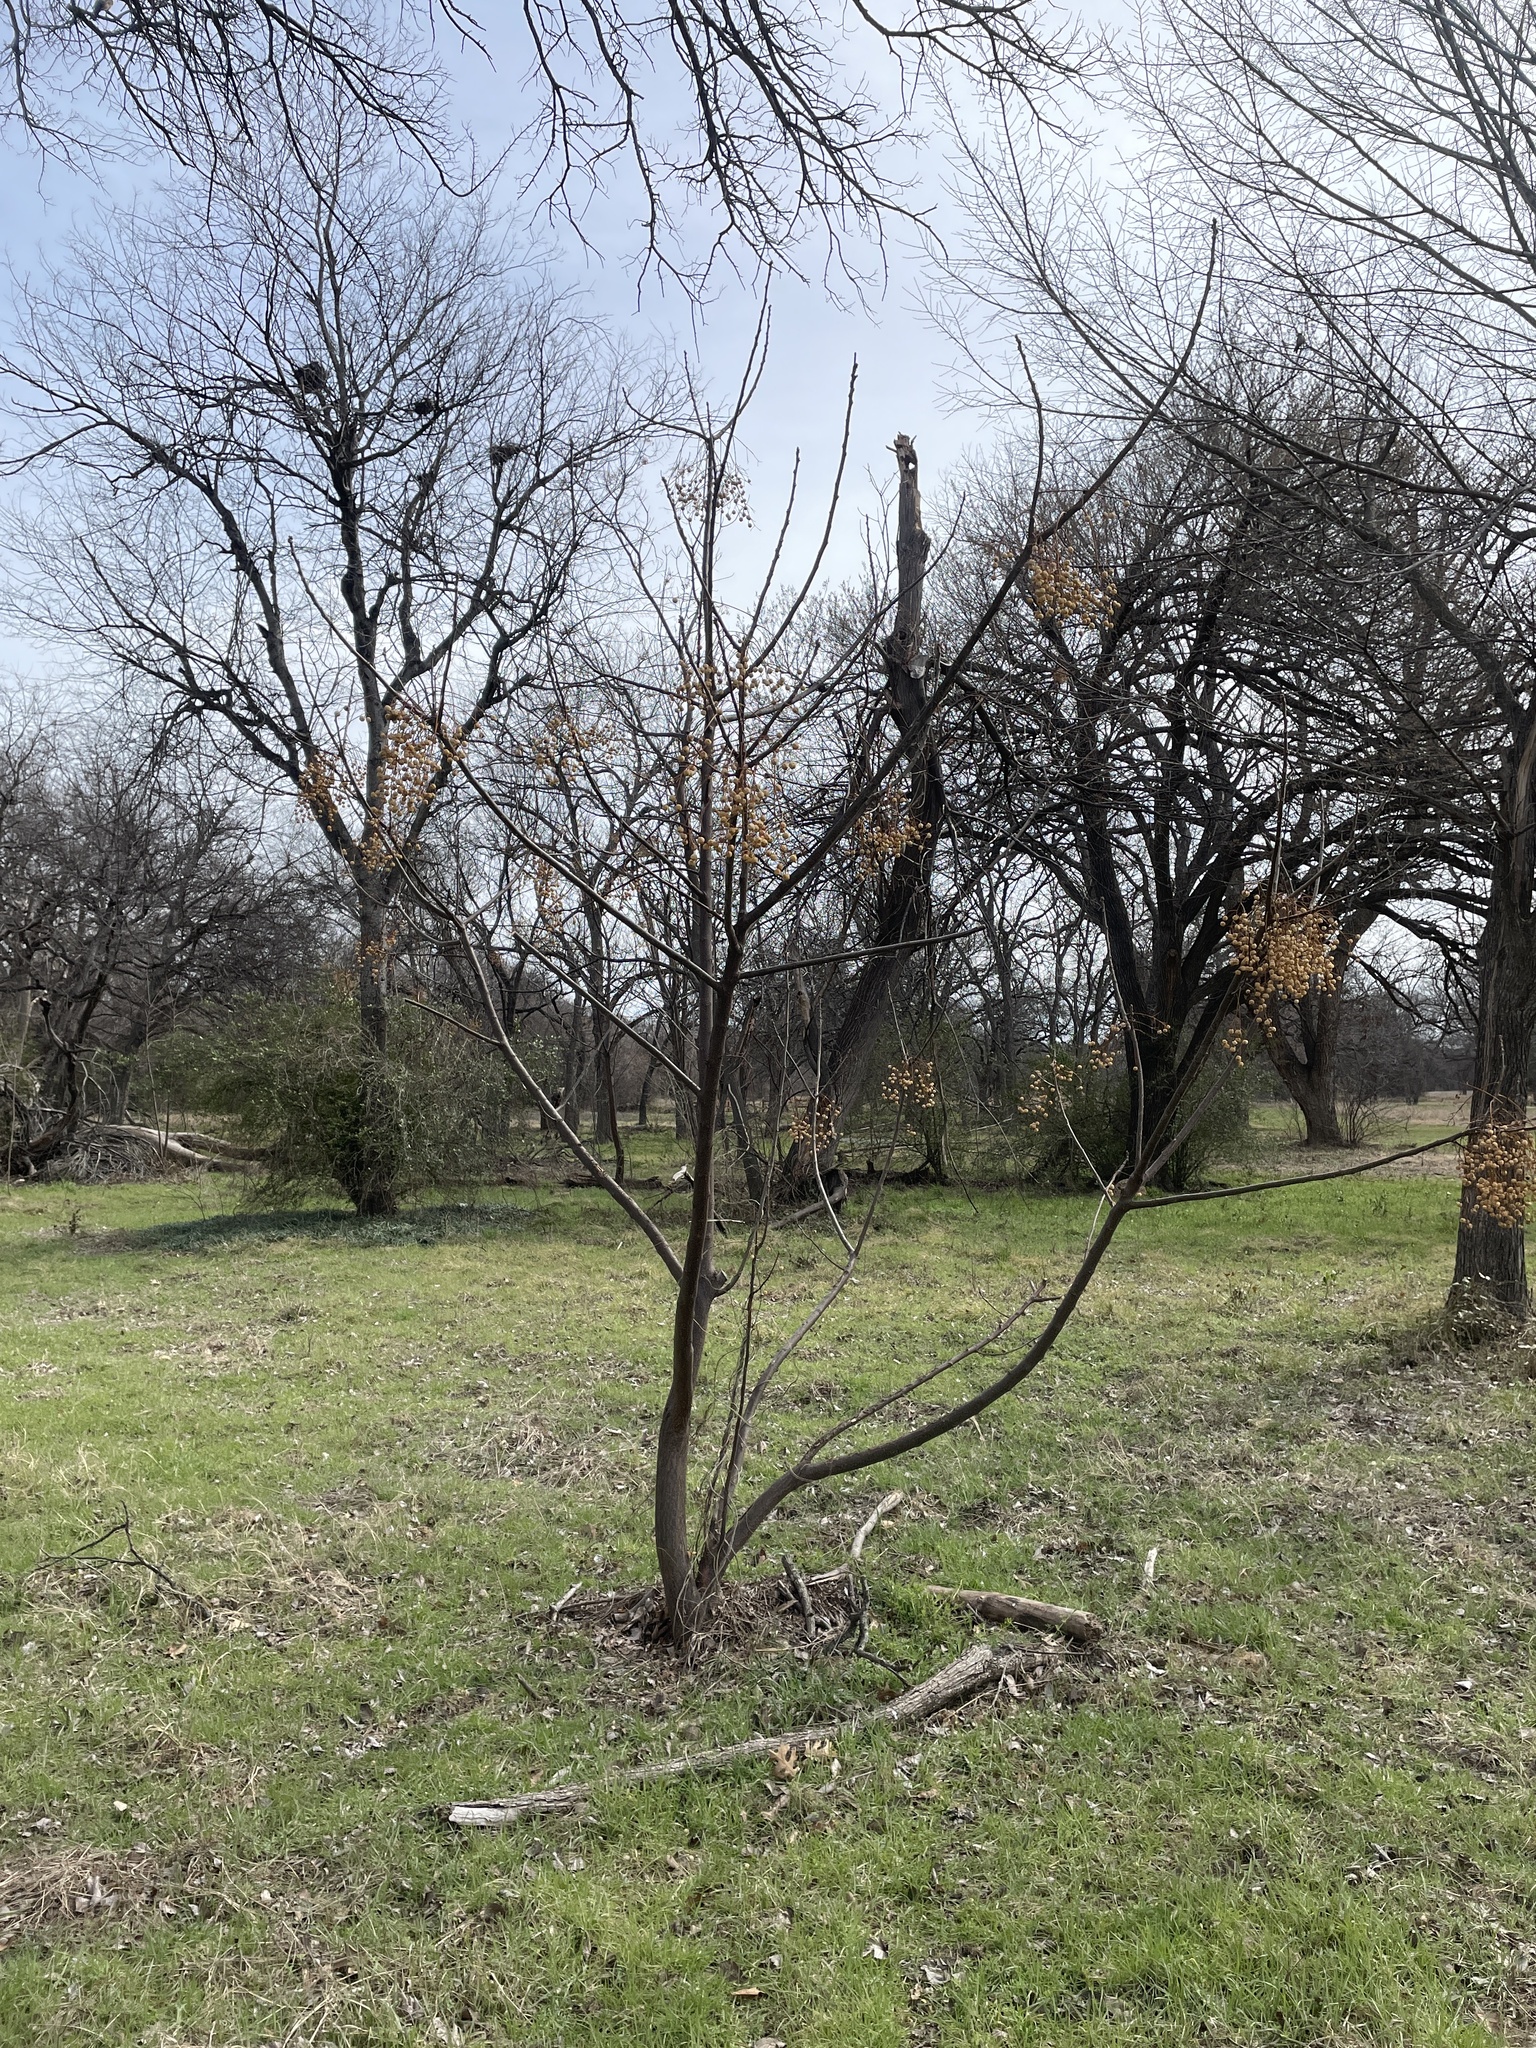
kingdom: Plantae
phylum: Tracheophyta
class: Magnoliopsida
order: Sapindales
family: Meliaceae
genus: Melia
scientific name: Melia azedarach
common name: Chinaberrytree
